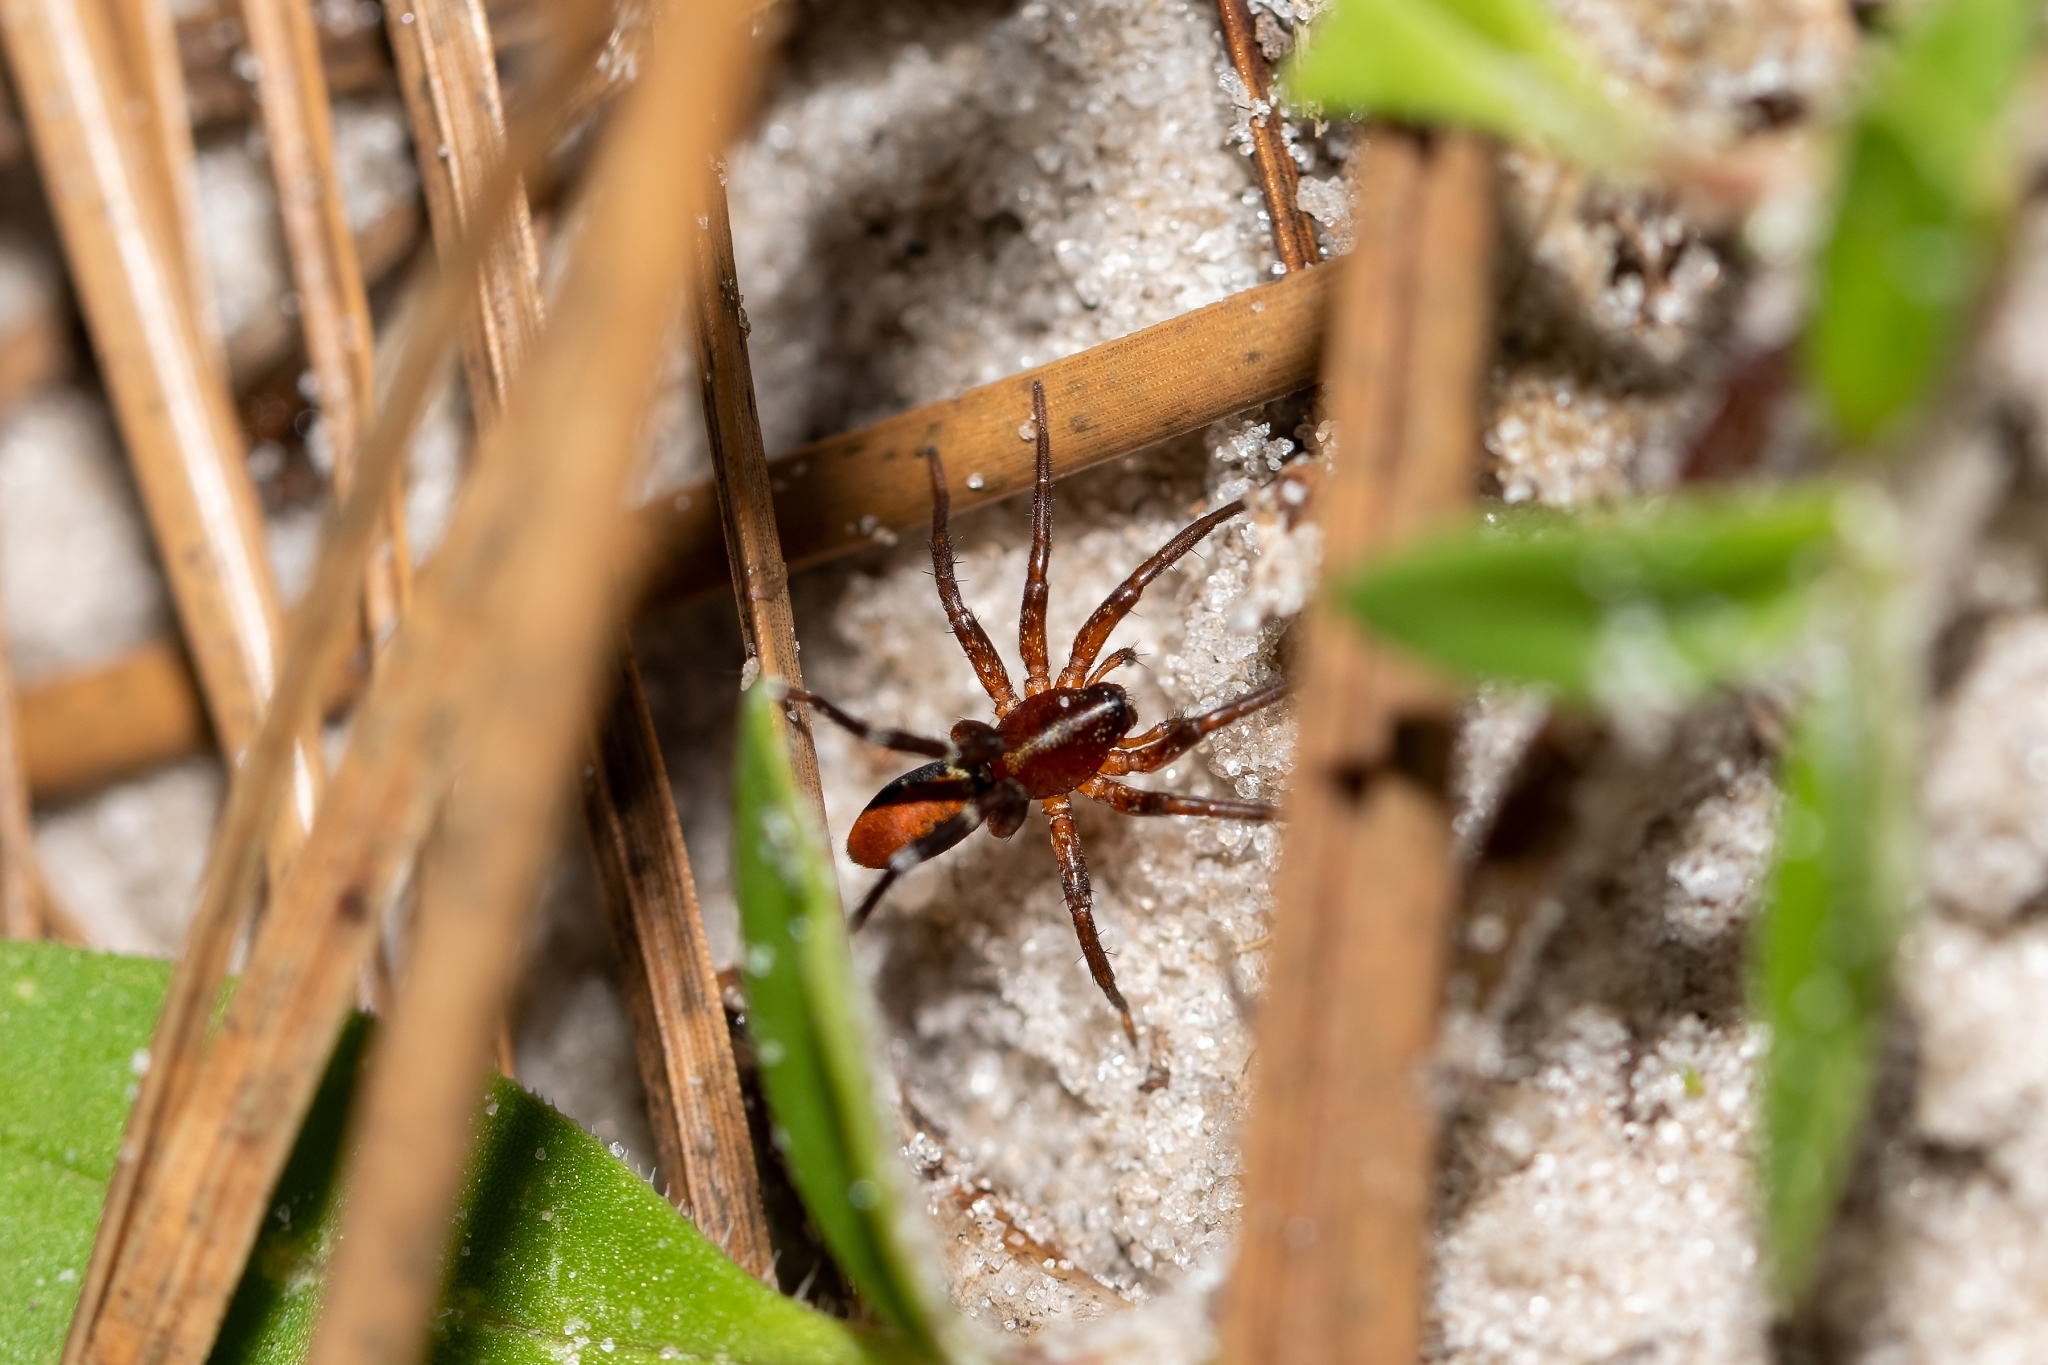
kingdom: Animalia
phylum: Arthropoda
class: Arachnida
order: Araneae
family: Corinnidae
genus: Castianeira
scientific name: Castianeira floridana
